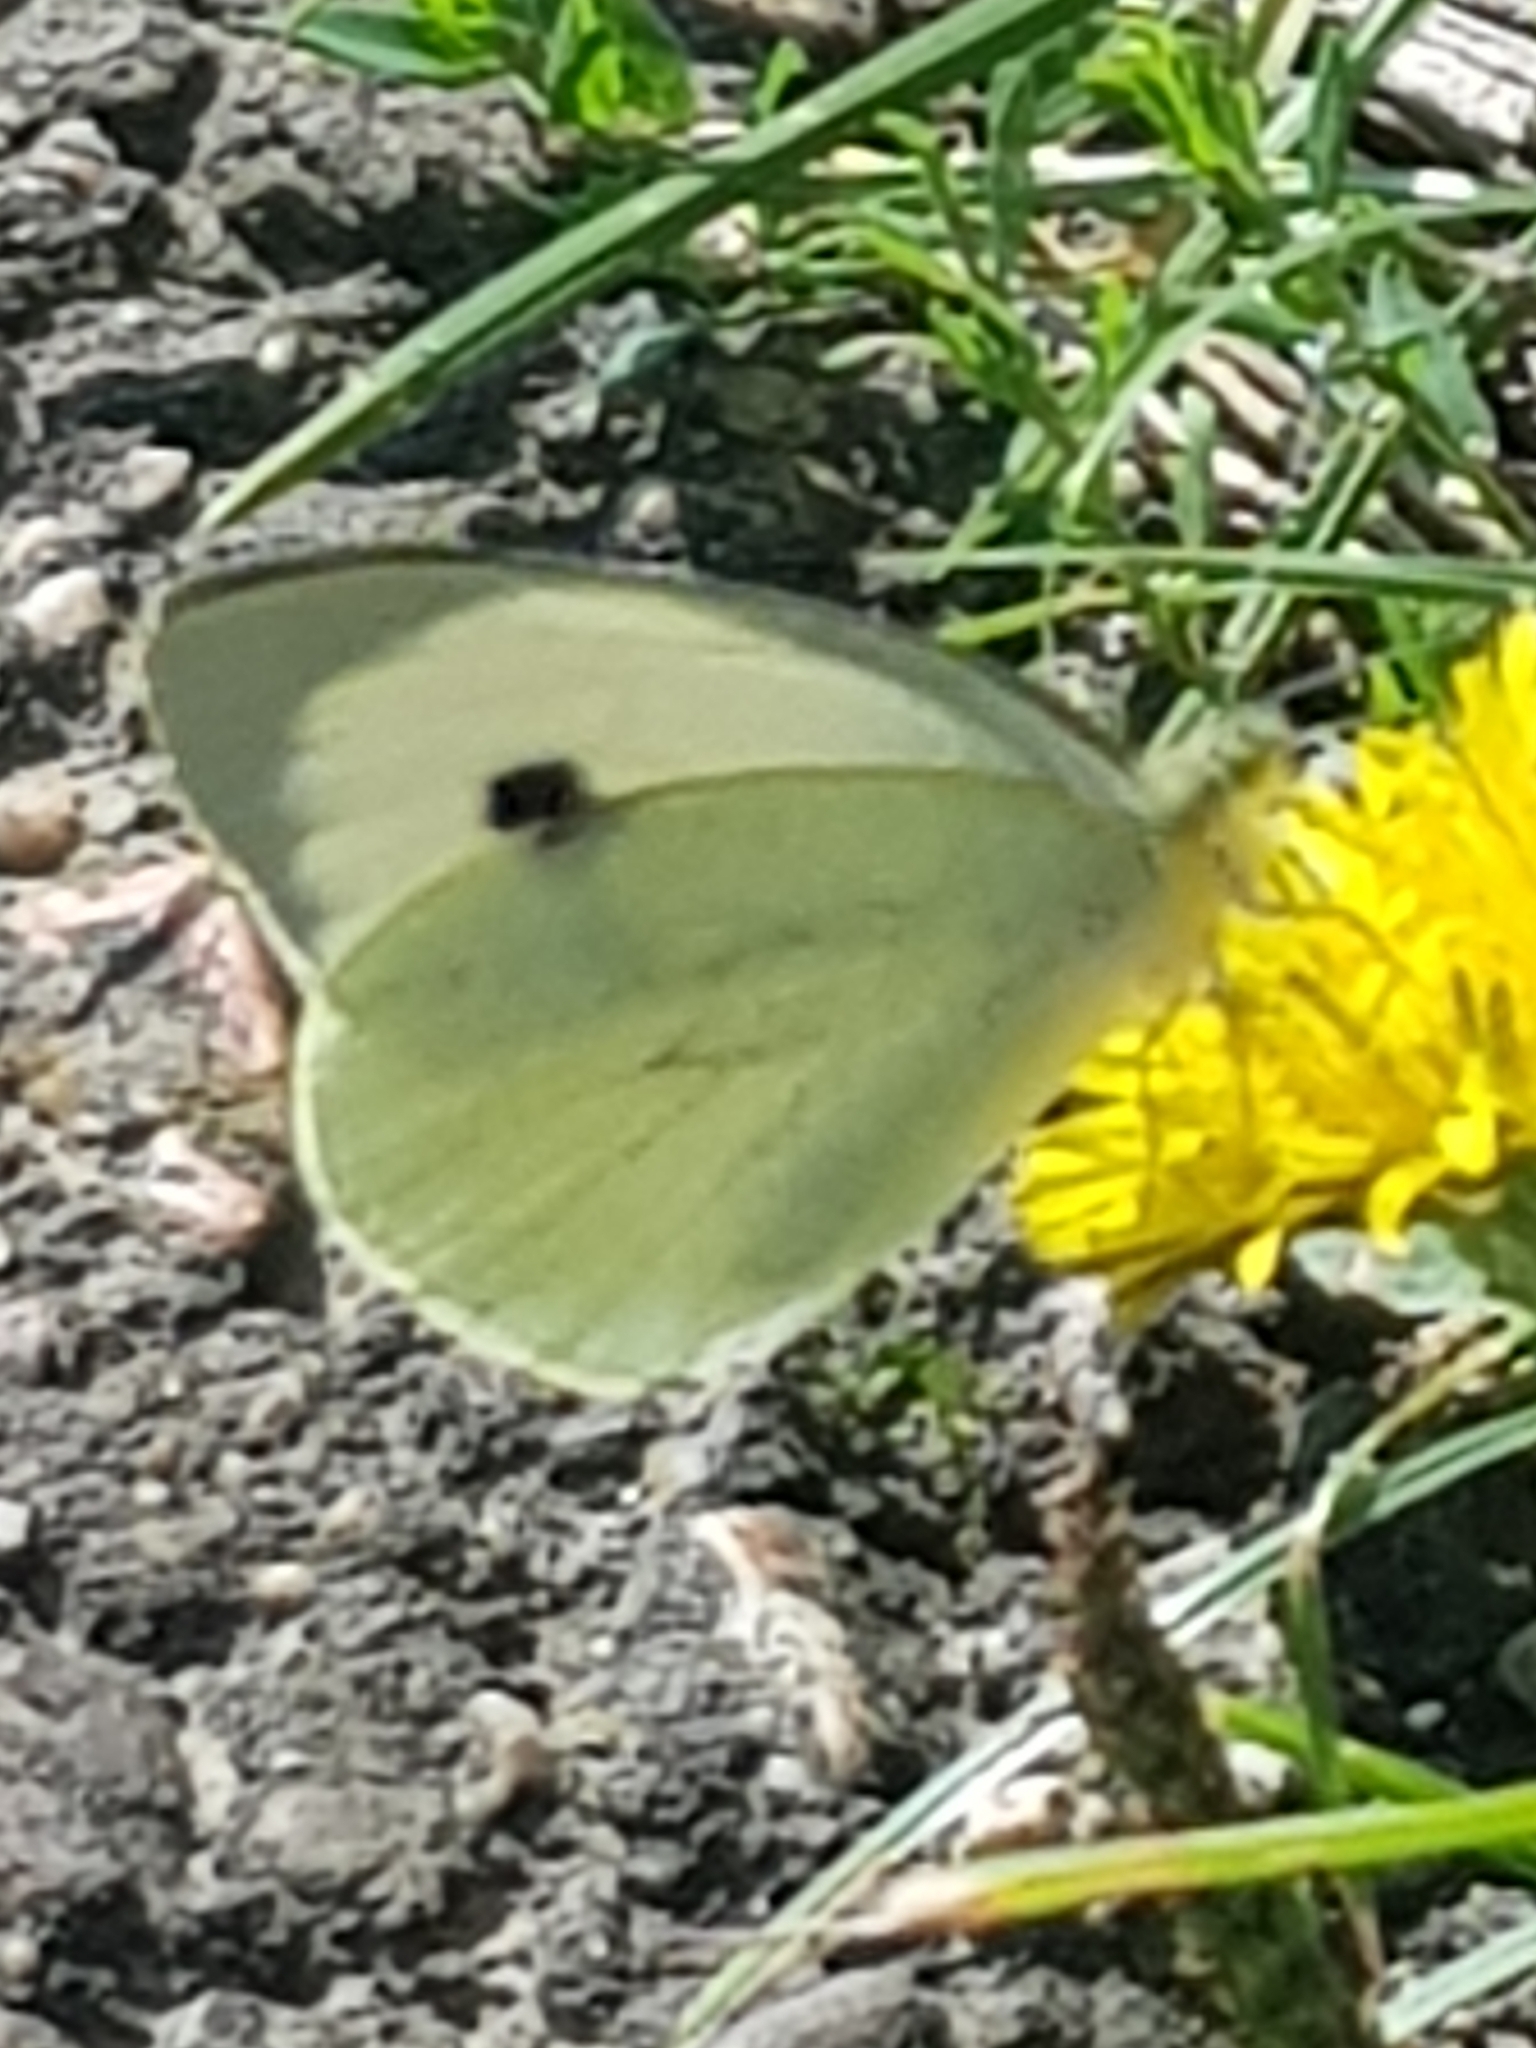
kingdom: Animalia
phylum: Arthropoda
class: Insecta
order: Lepidoptera
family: Pieridae
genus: Pieris
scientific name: Pieris brassicae
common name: Large white
